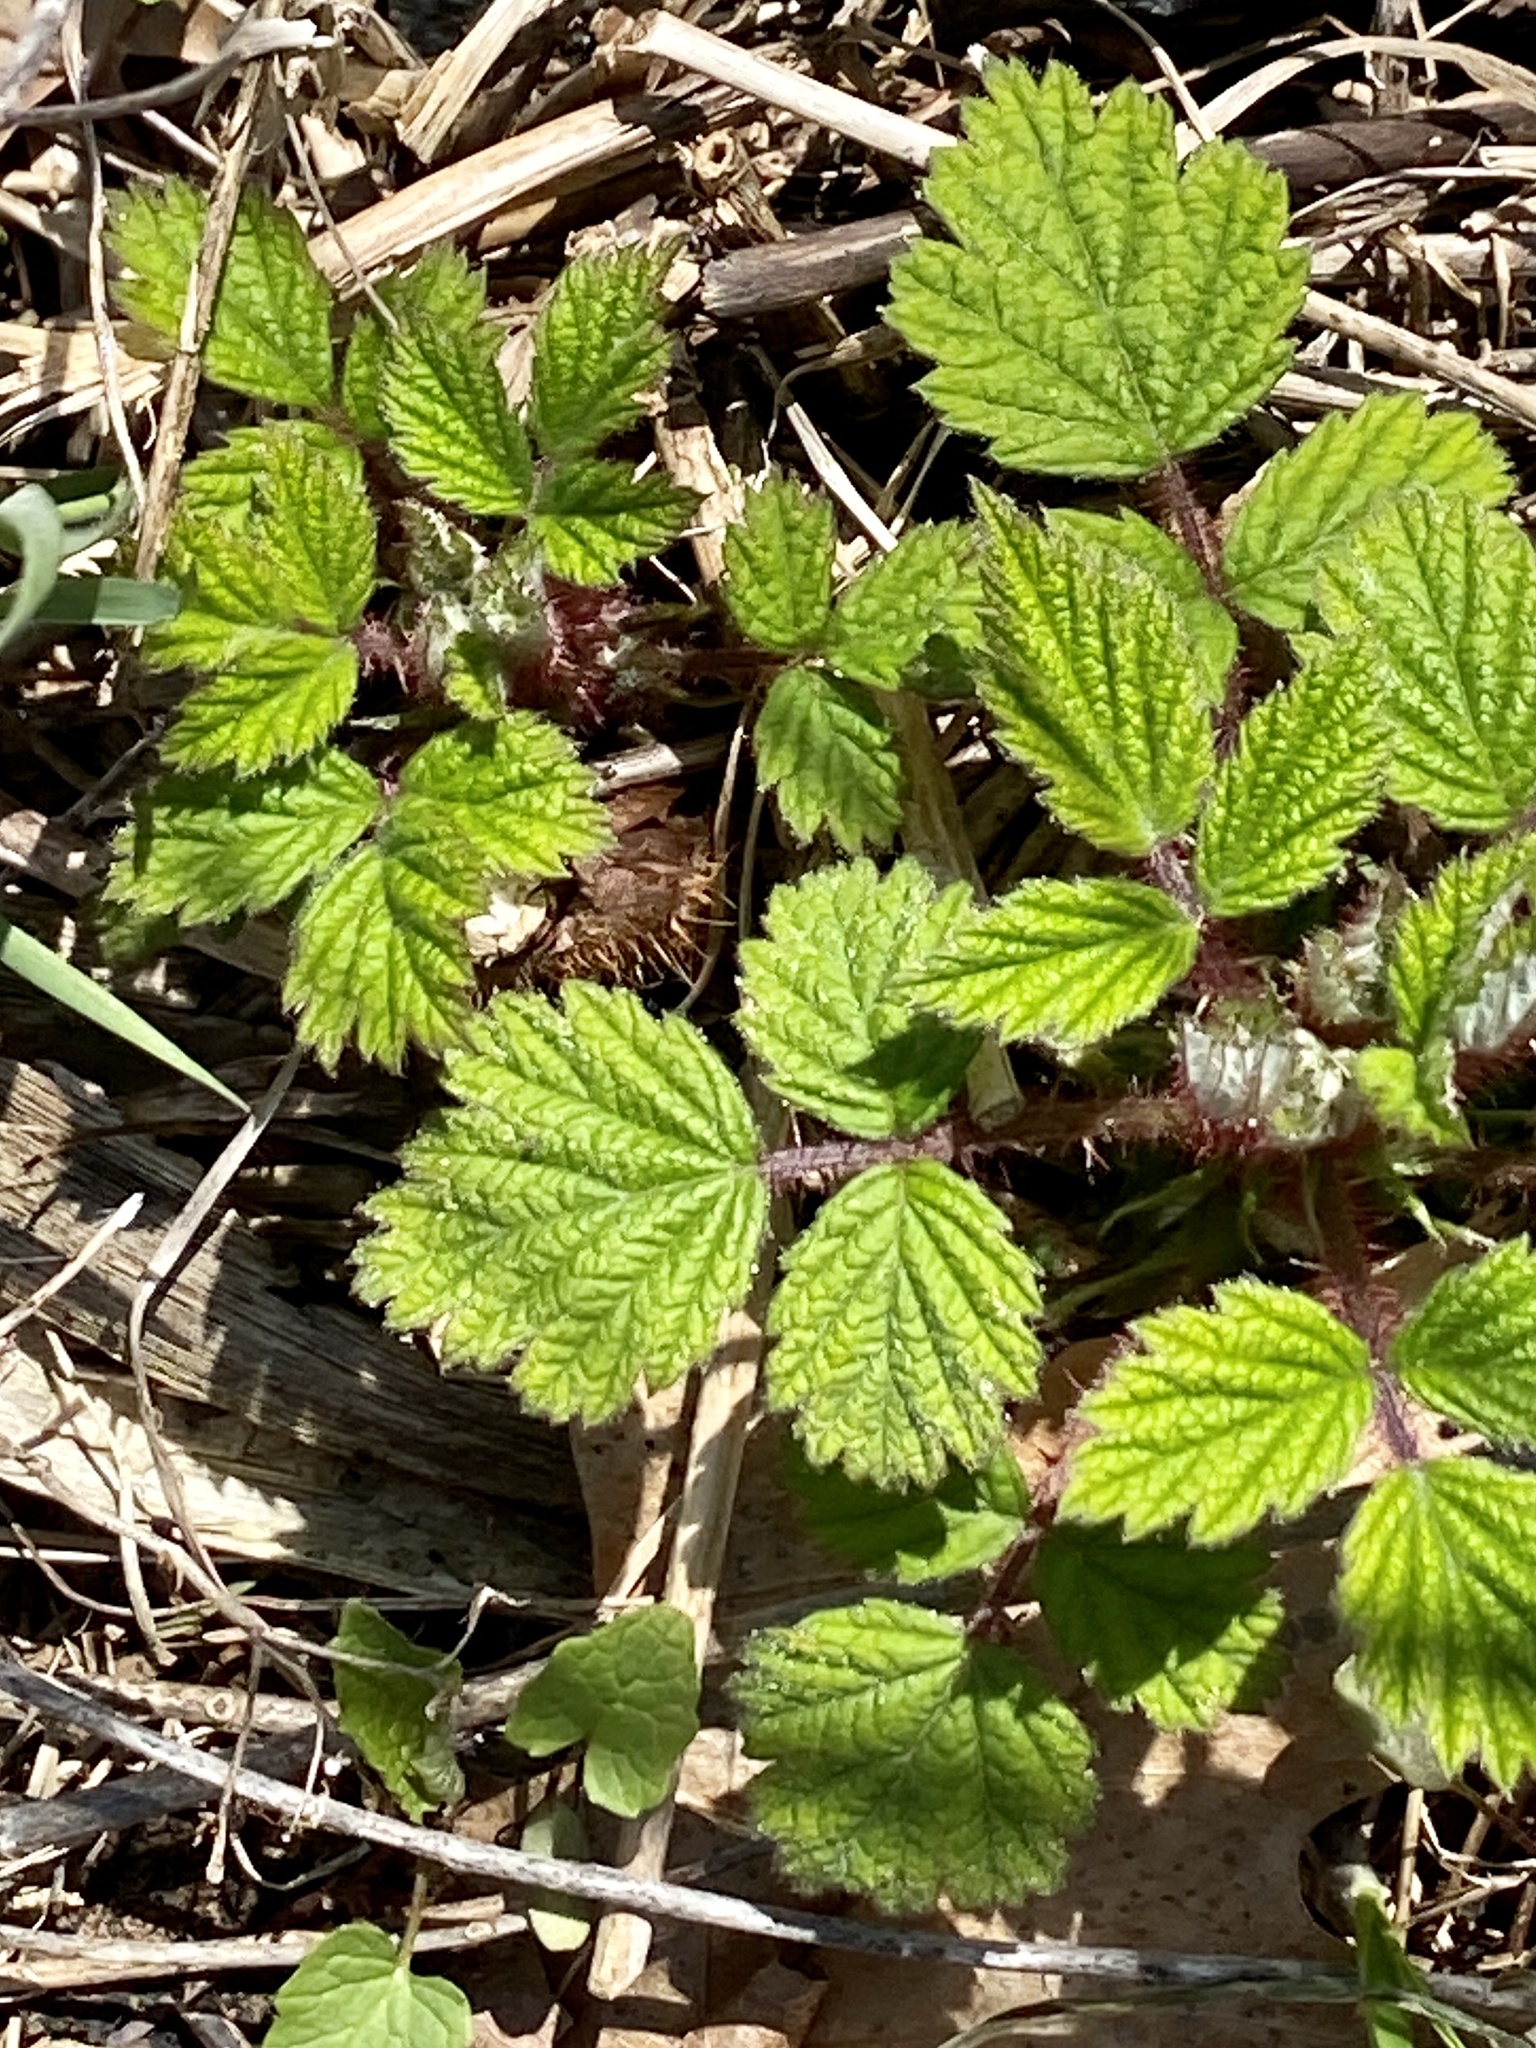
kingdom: Plantae
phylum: Tracheophyta
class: Magnoliopsida
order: Rosales
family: Rosaceae
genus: Rubus
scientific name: Rubus phoenicolasius
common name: Japanese wineberry
